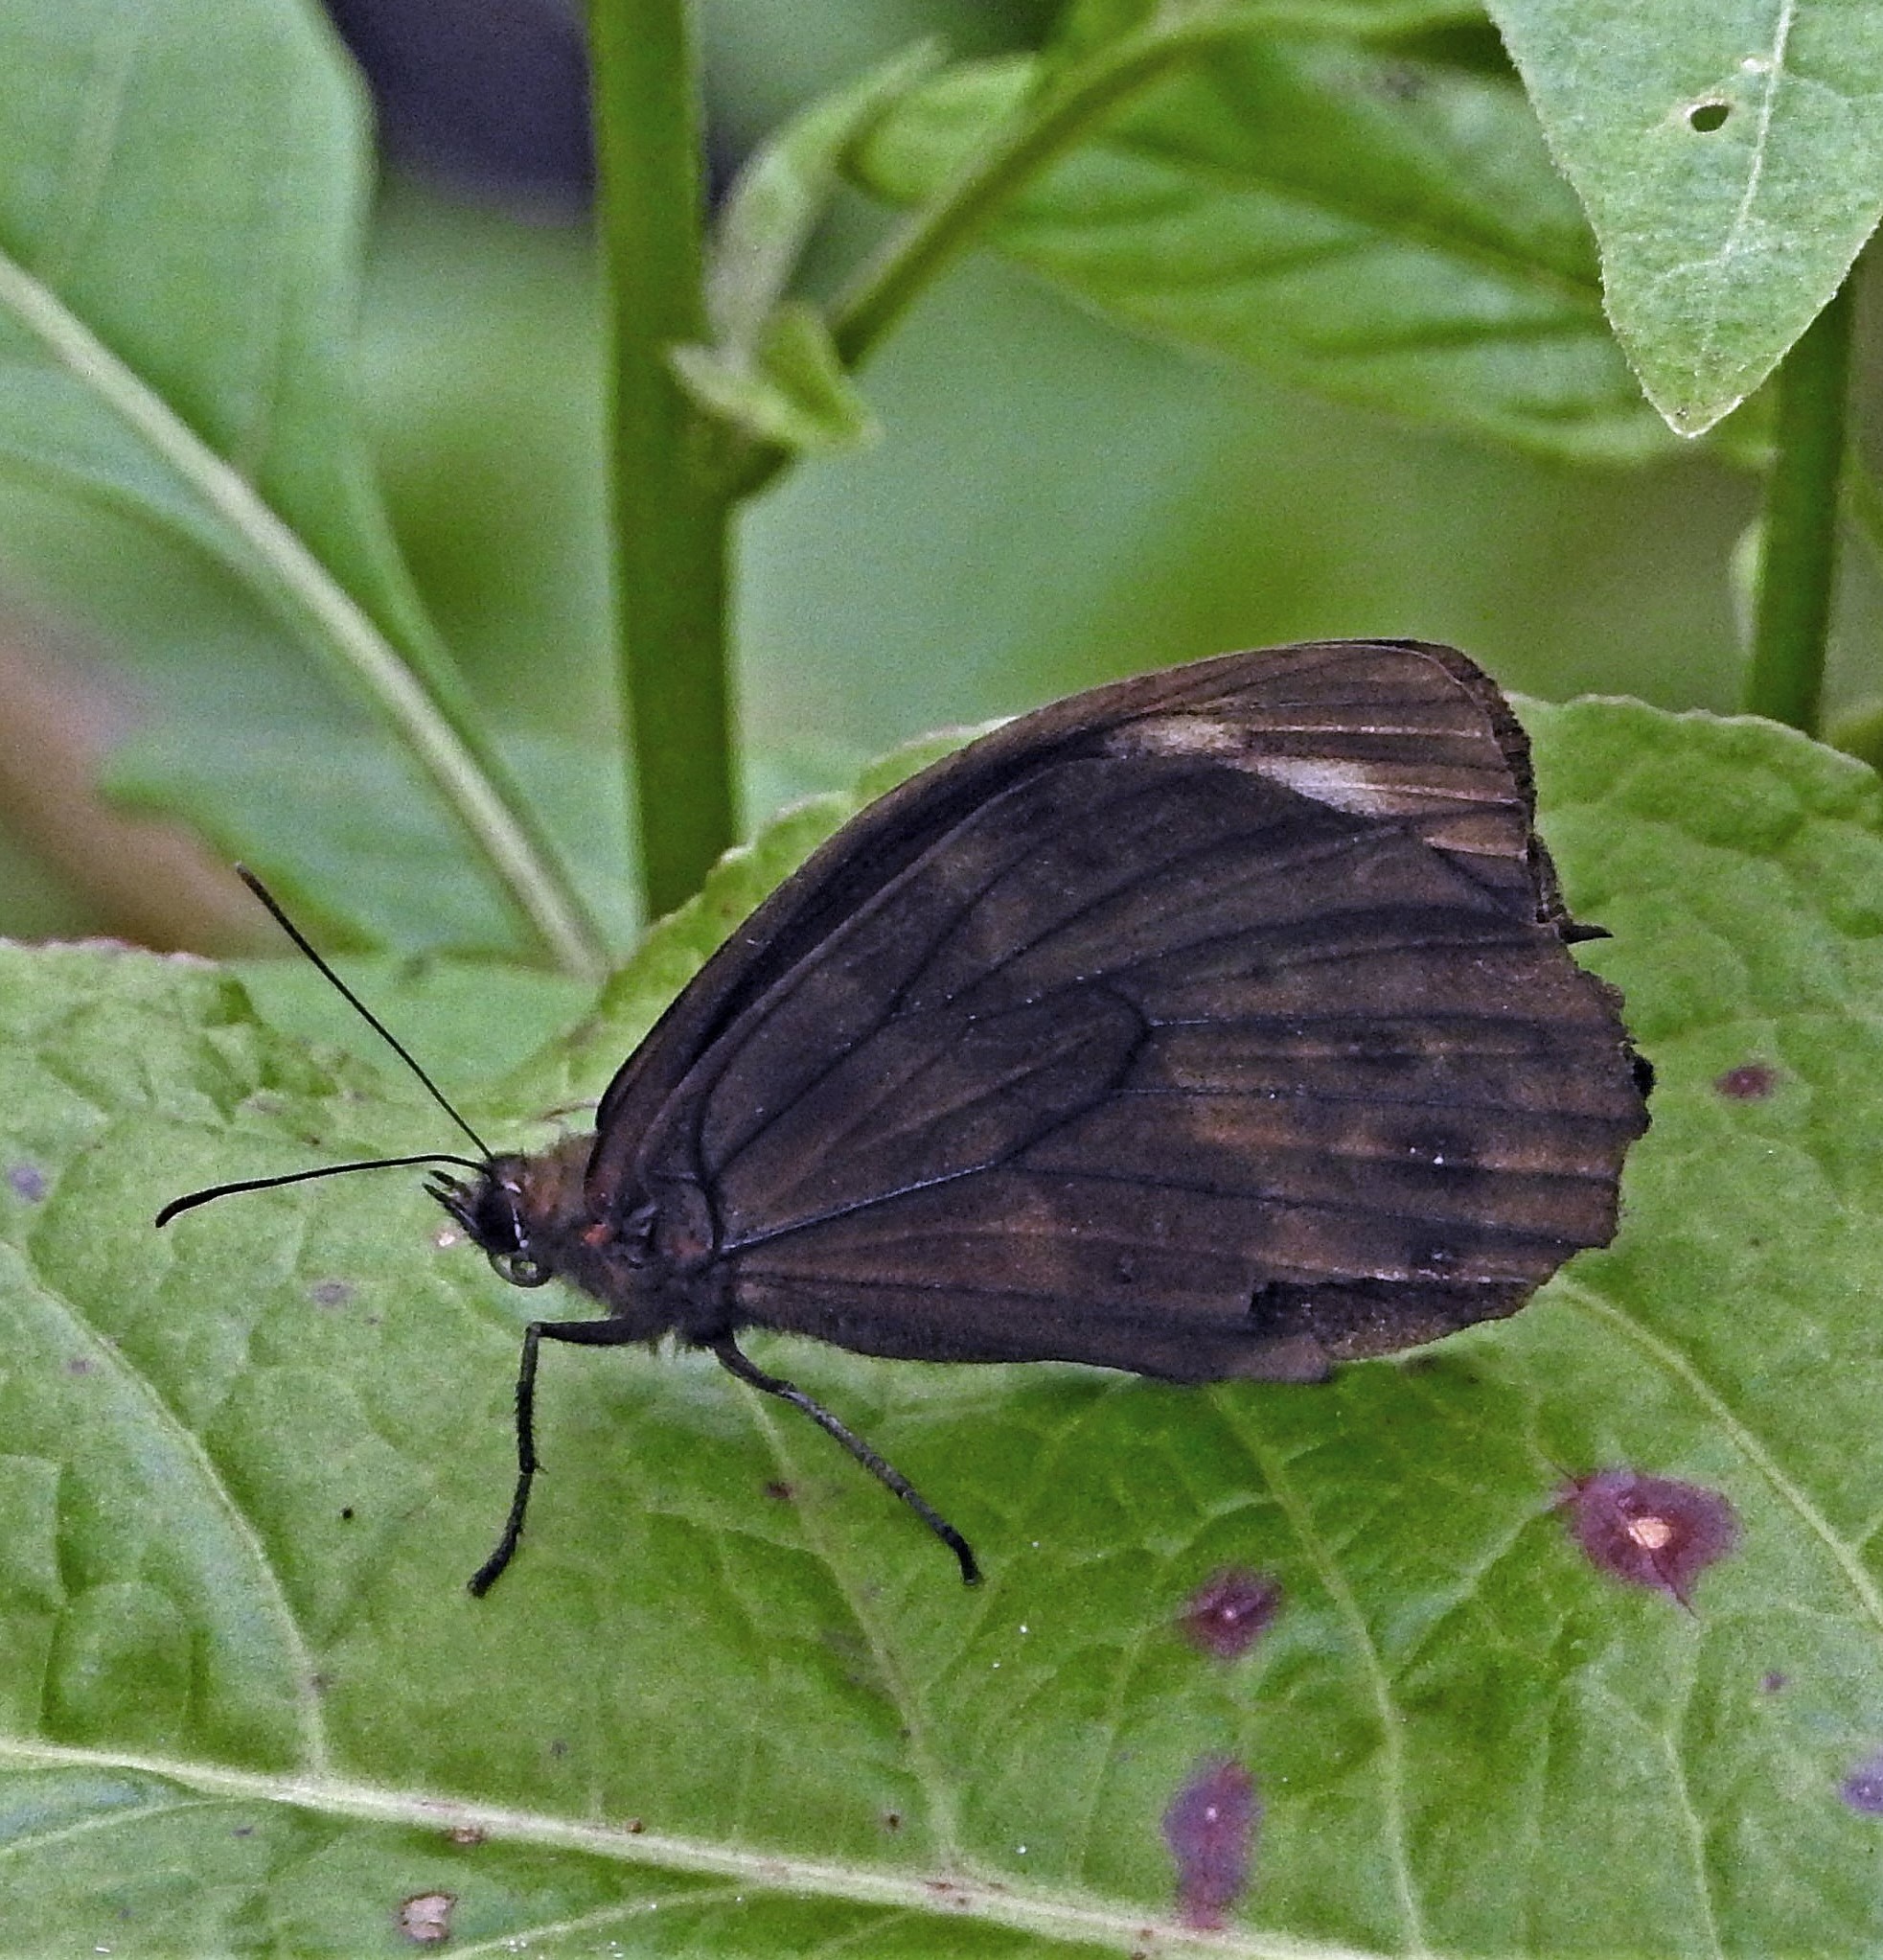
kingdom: Animalia
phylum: Arthropoda
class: Insecta
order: Lepidoptera
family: Nymphalidae
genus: Pronophila
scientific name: Pronophila unifasciata
